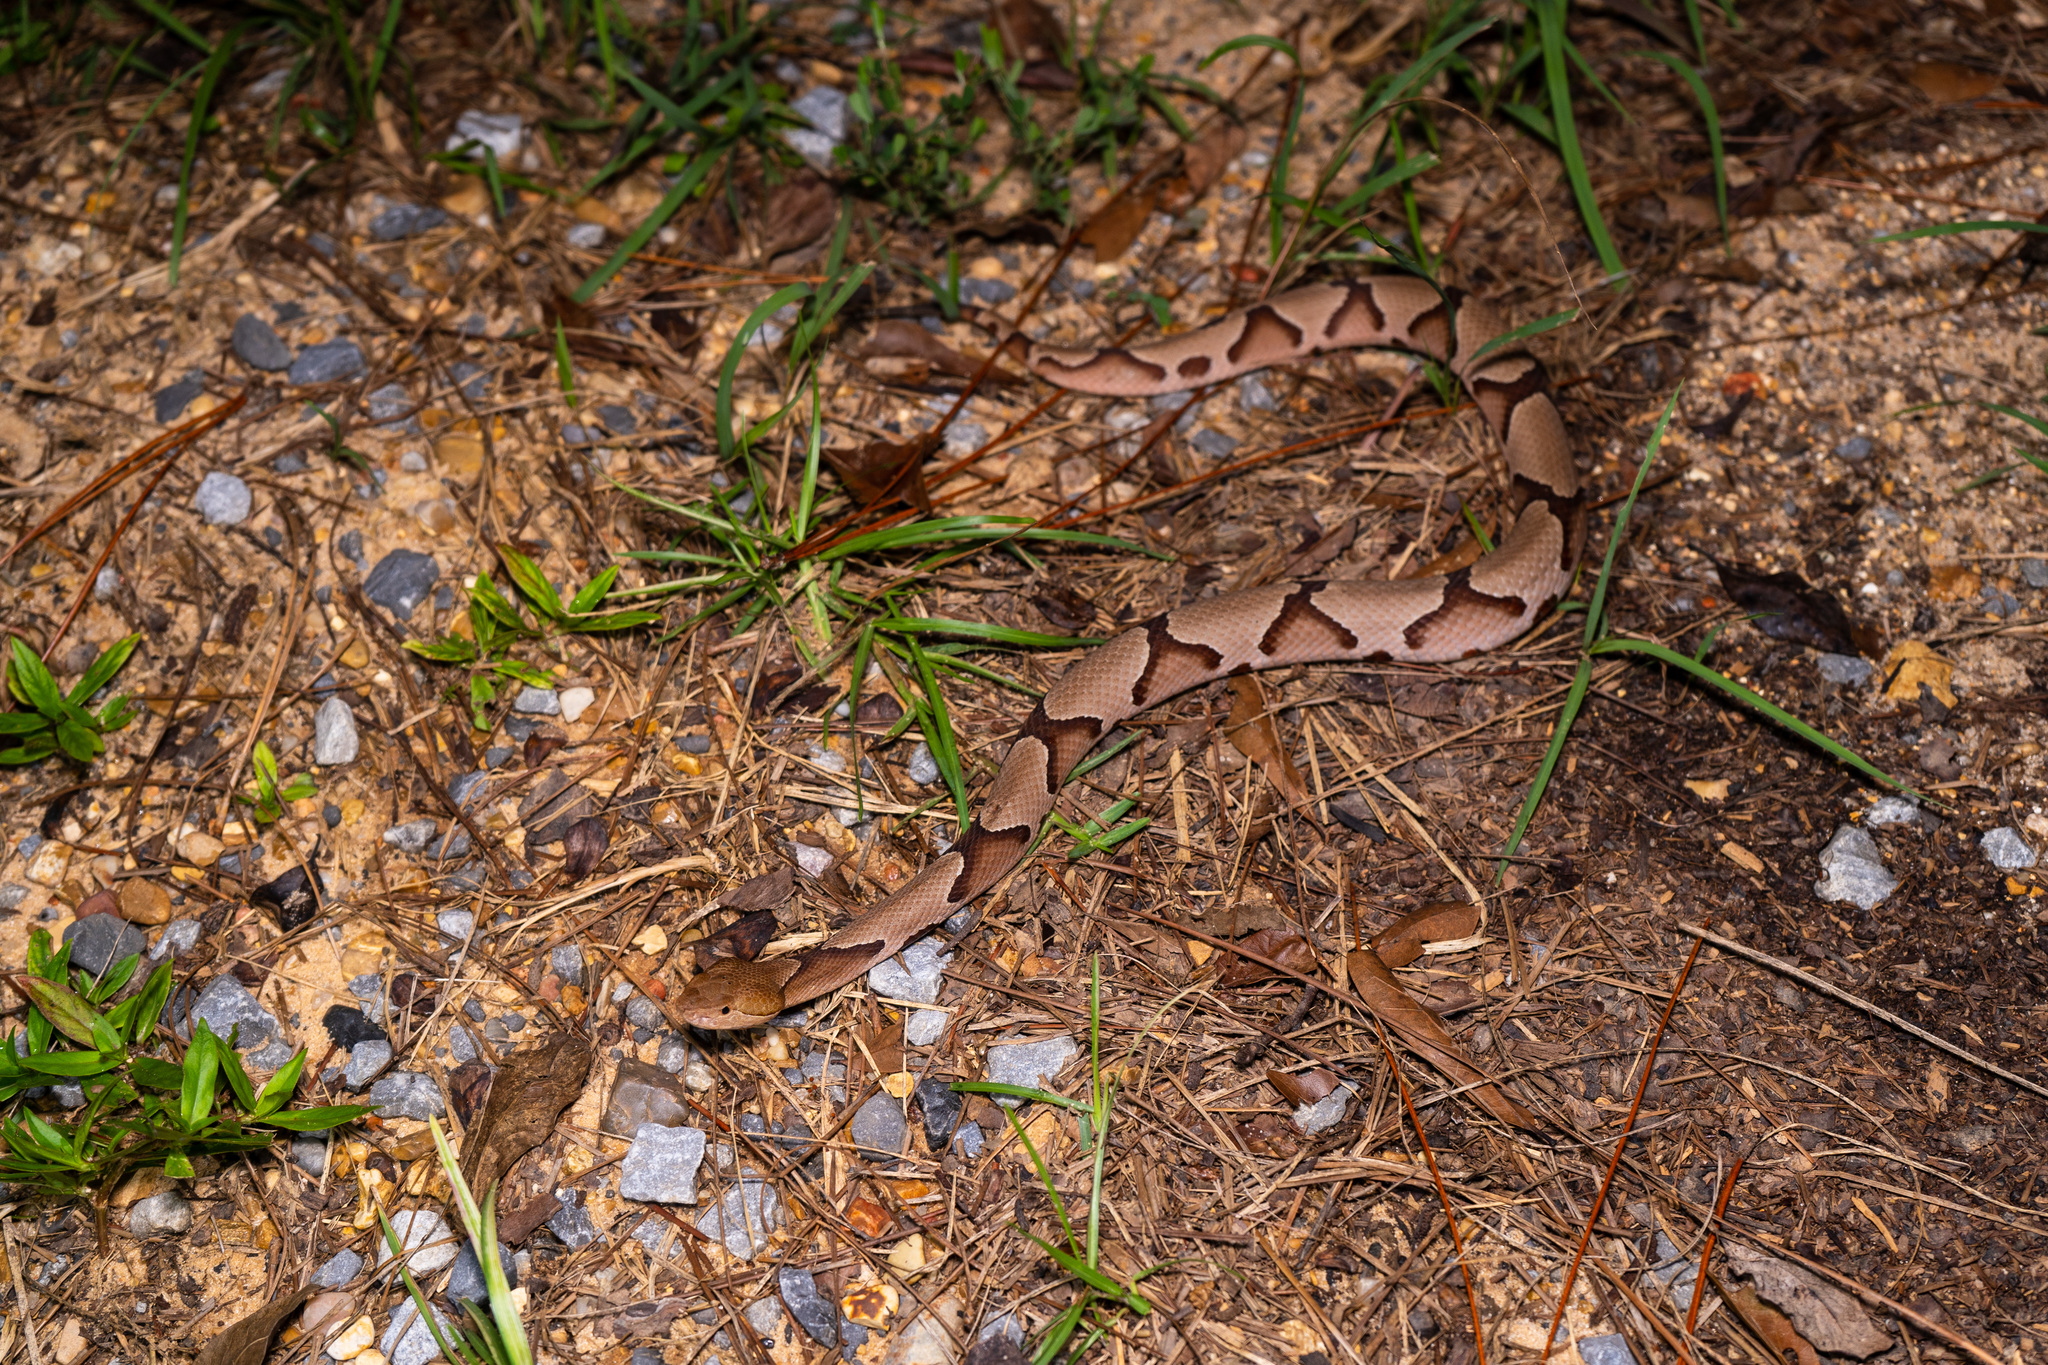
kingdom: Animalia
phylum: Chordata
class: Squamata
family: Viperidae
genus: Agkistrodon
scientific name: Agkistrodon contortrix
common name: Northern copperhead
